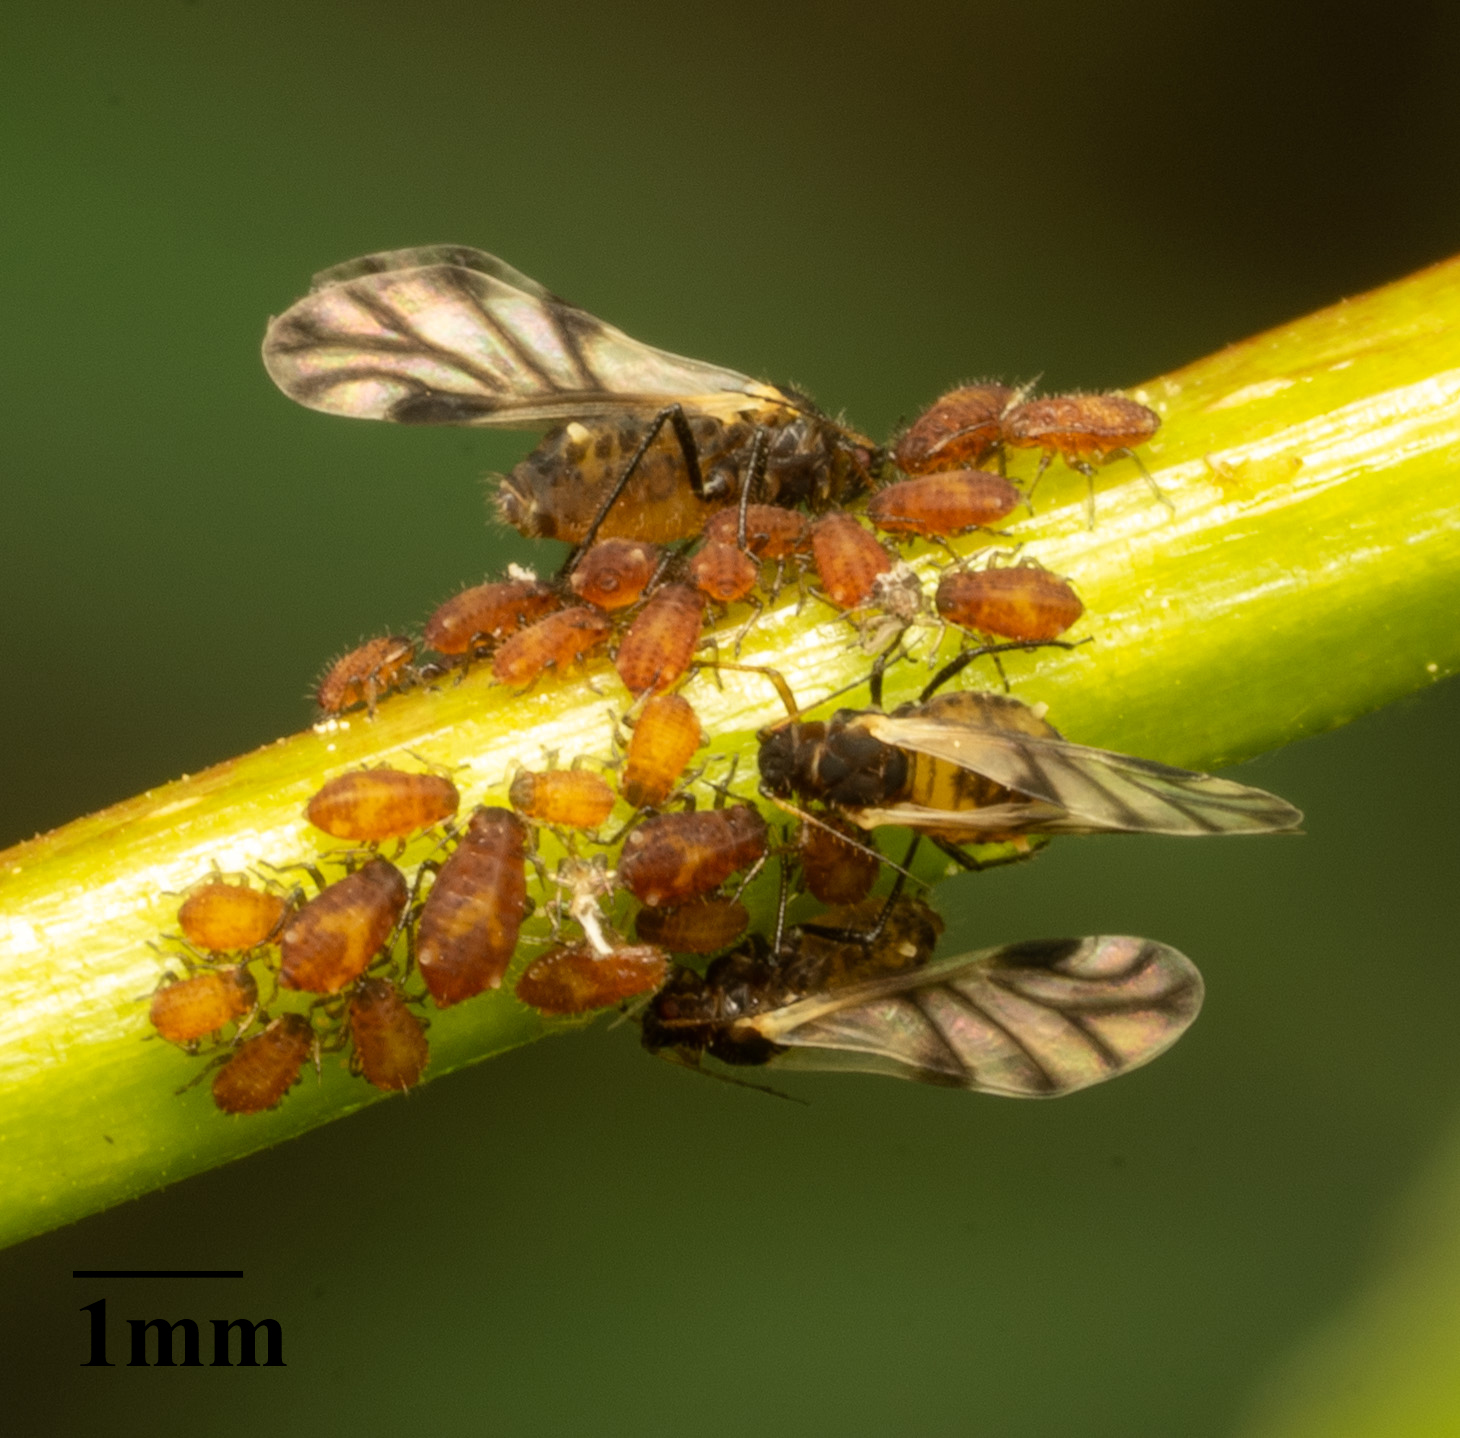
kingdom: Animalia
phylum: Arthropoda
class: Insecta
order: Hemiptera
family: Aphididae
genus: Chaitophorus
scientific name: Chaitophorus populicola
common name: Smokywinged poplar aphid
